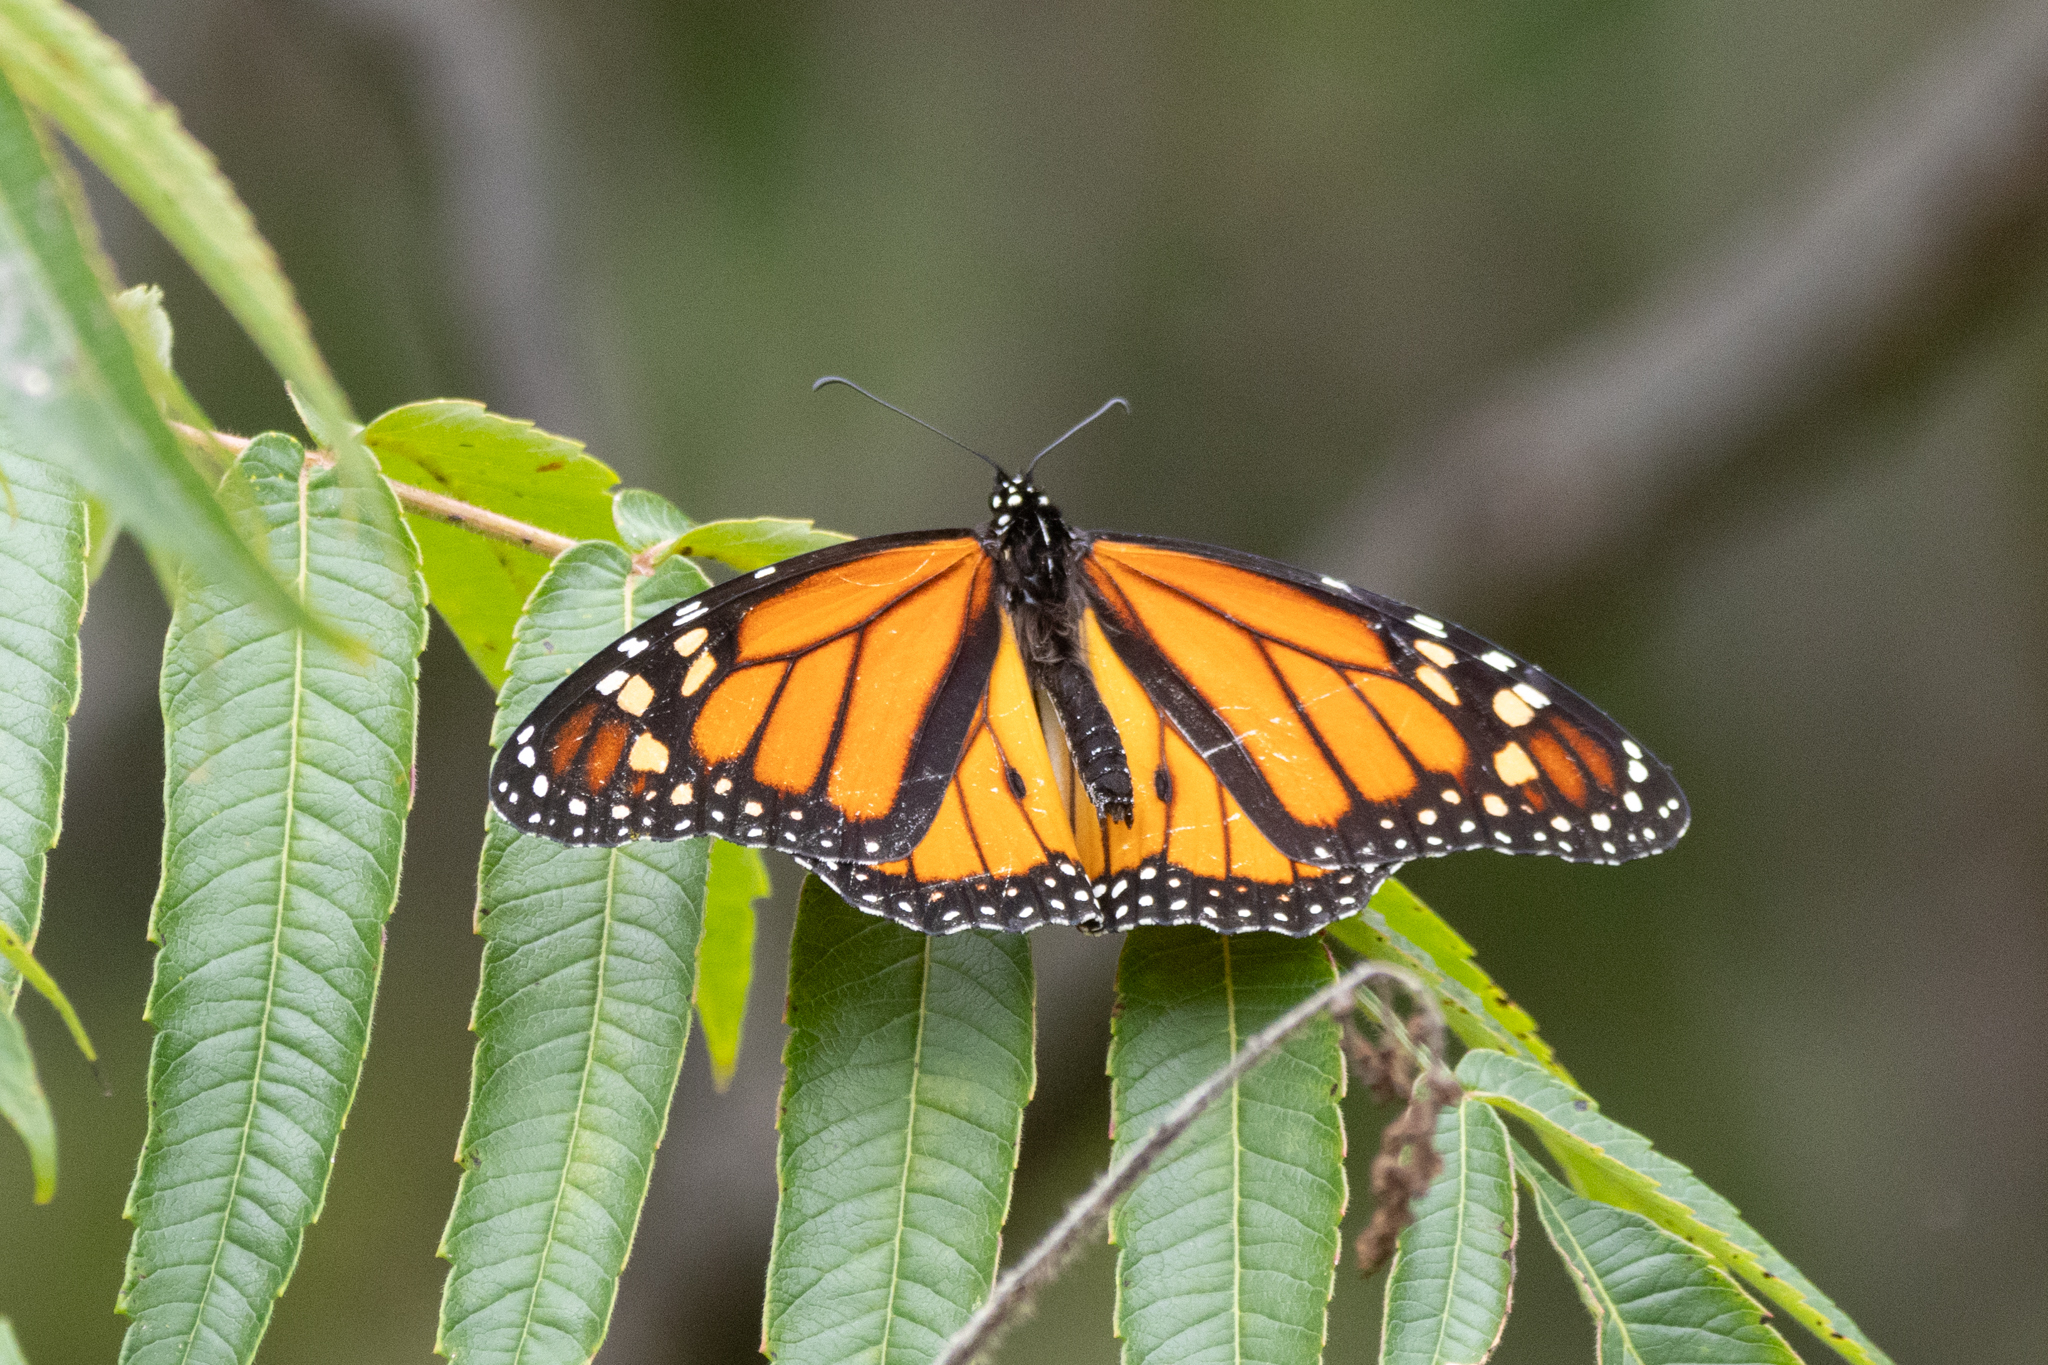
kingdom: Animalia
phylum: Arthropoda
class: Insecta
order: Lepidoptera
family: Nymphalidae
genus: Danaus
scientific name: Danaus plexippus
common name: Monarch
